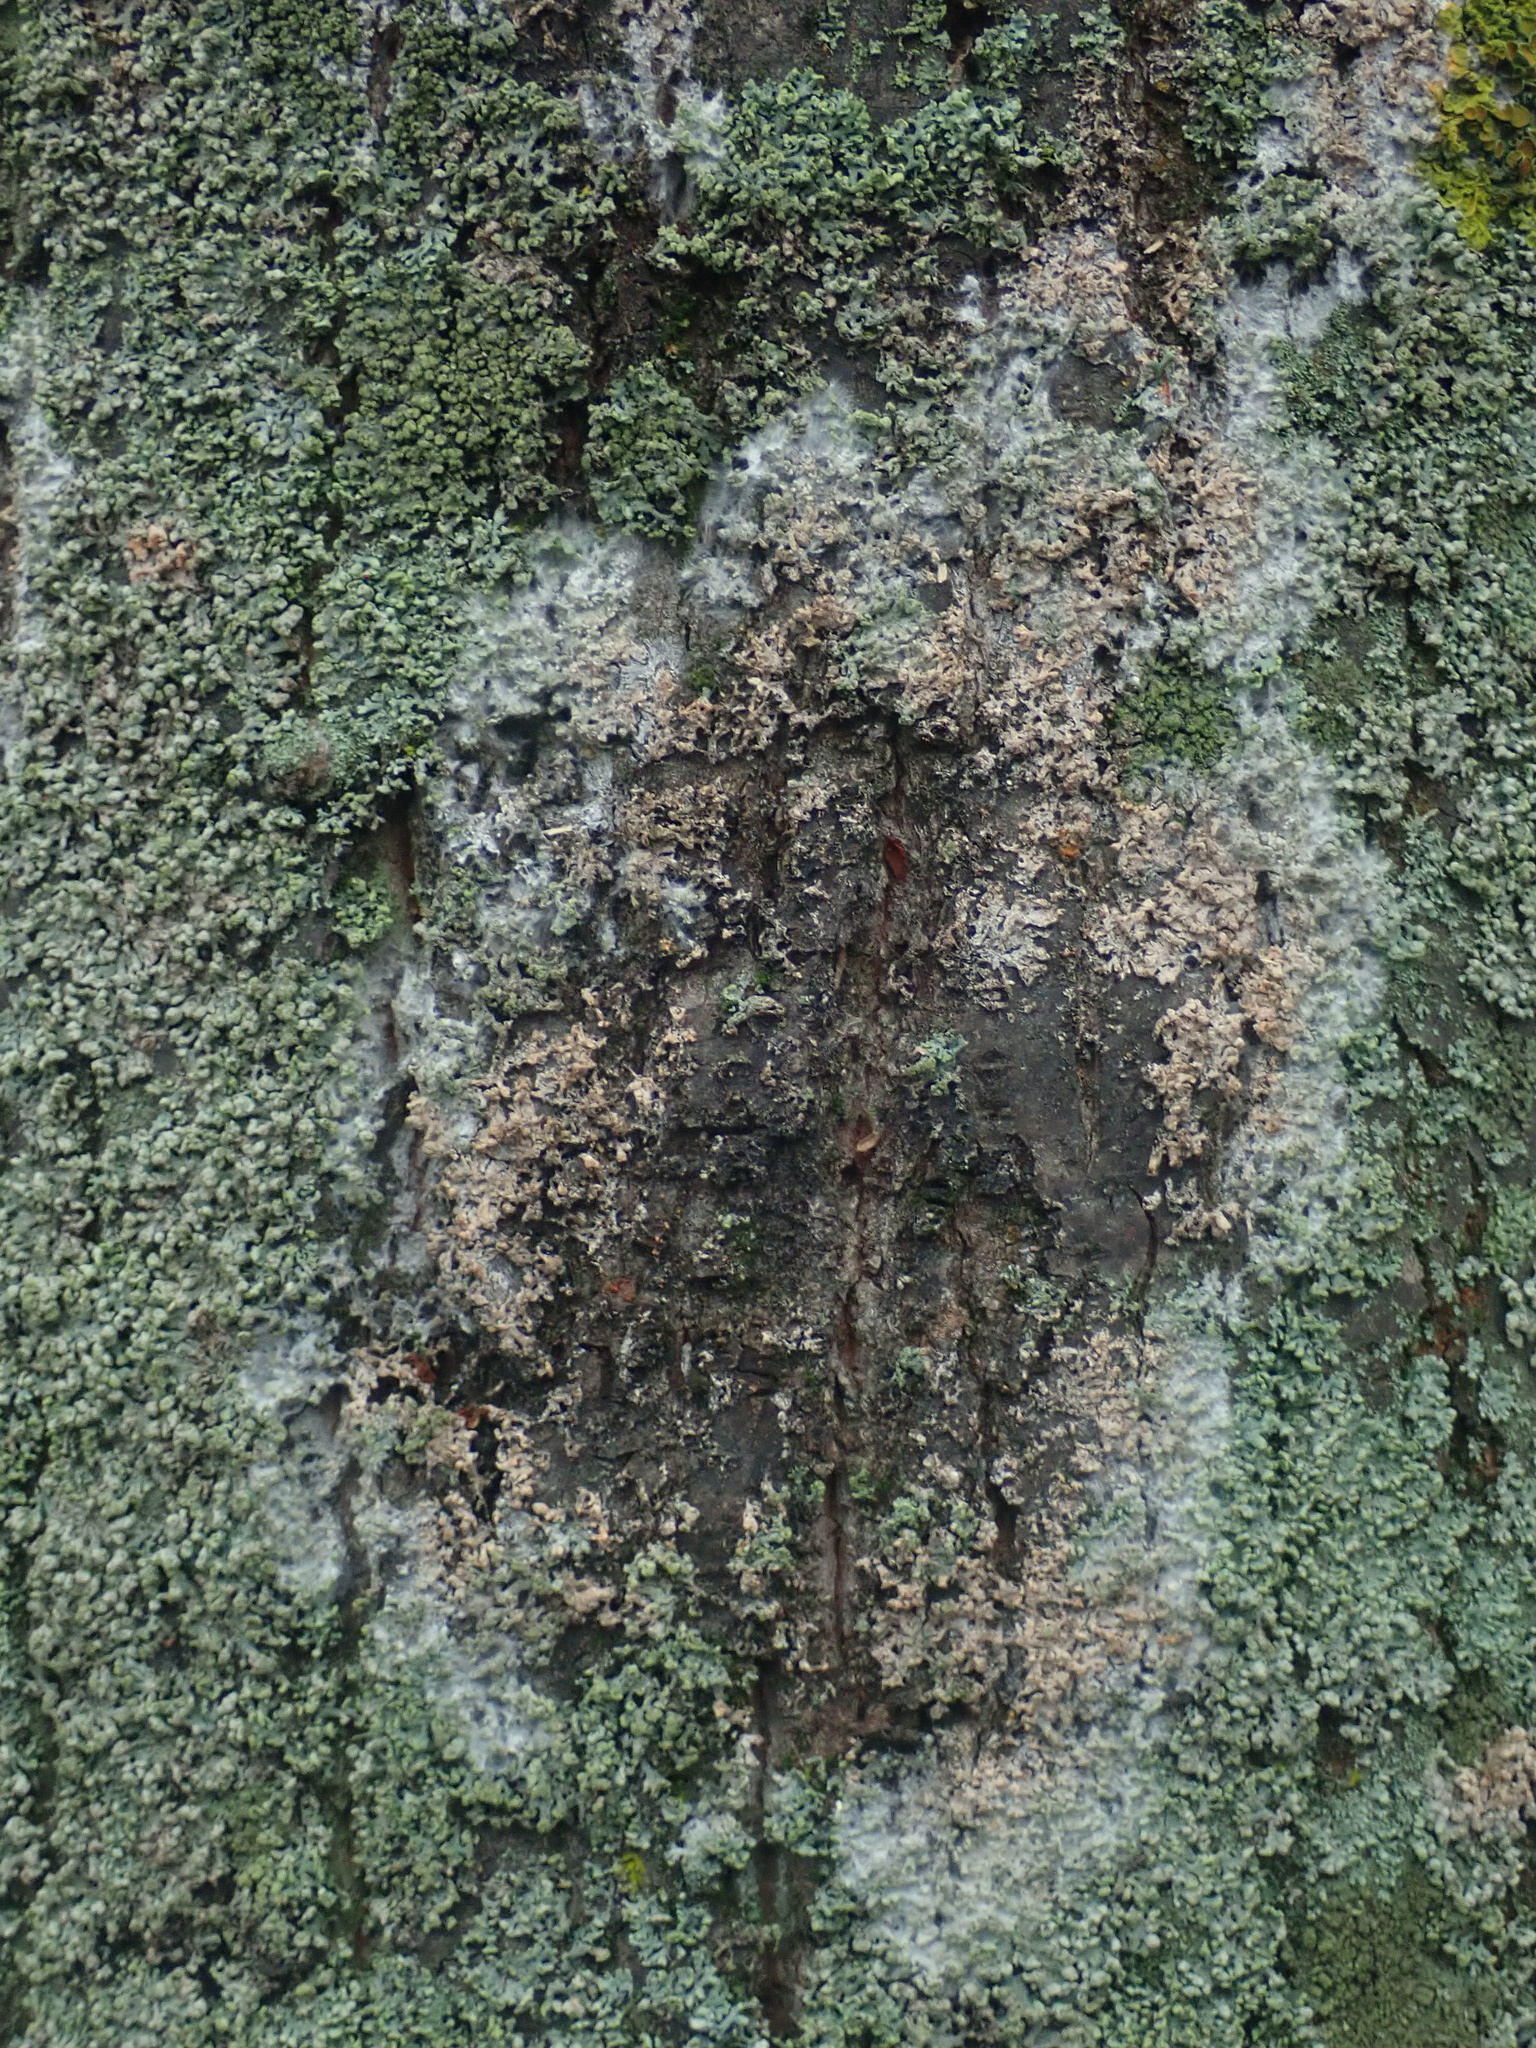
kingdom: Fungi
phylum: Basidiomycota
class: Agaricomycetes
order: Atheliales
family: Atheliaceae
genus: Athelia
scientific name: Athelia arachnoidea
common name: Candelabra duster
